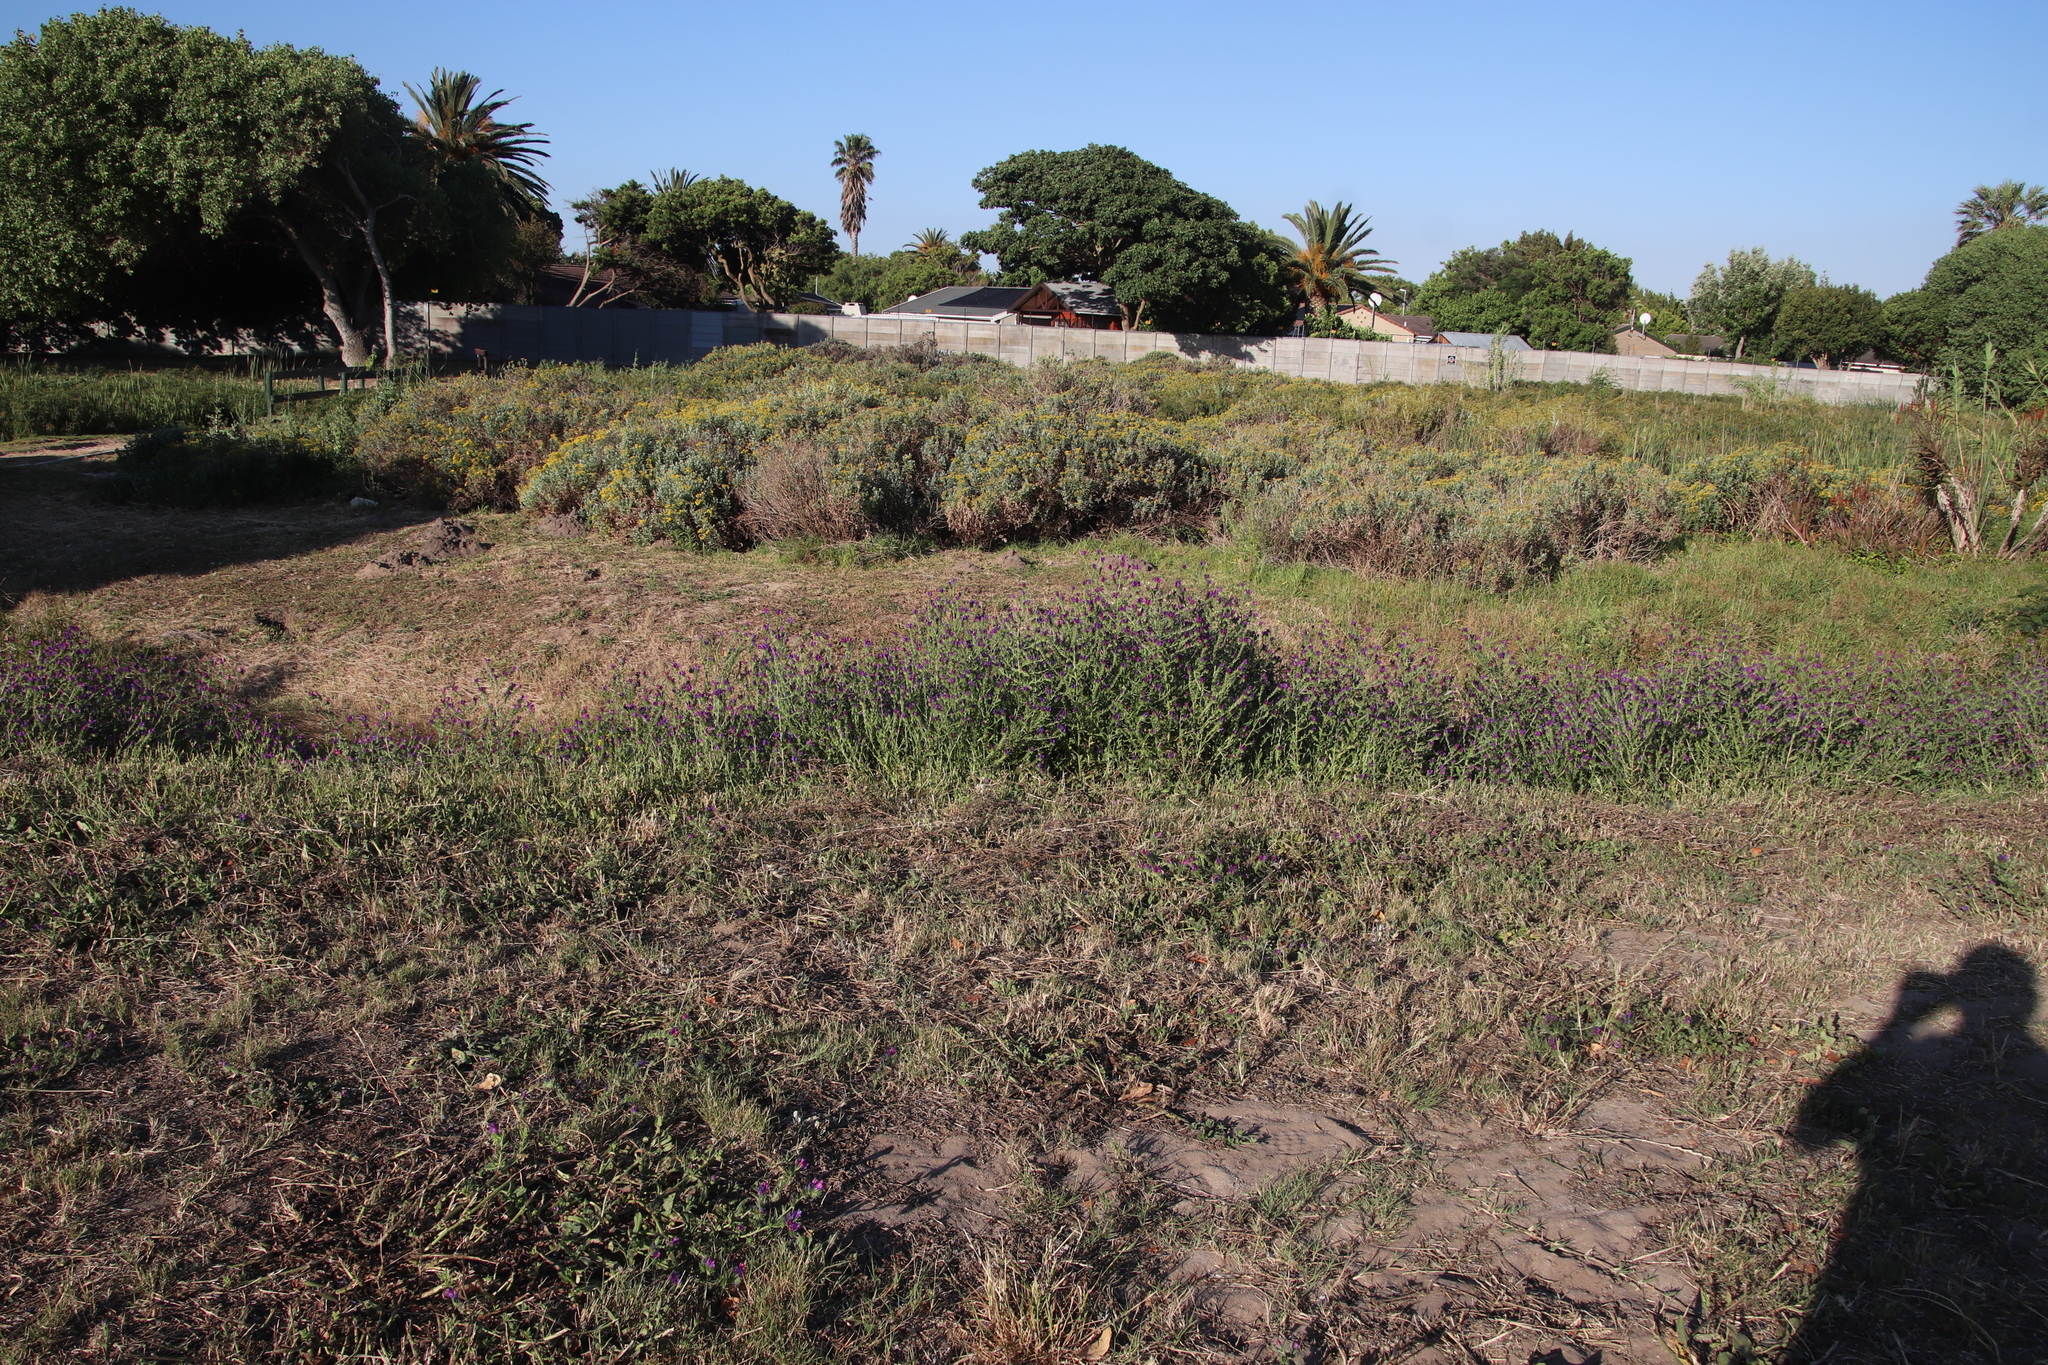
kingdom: Plantae
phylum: Tracheophyta
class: Magnoliopsida
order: Boraginales
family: Boraginaceae
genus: Echium
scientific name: Echium plantagineum
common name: Purple viper's-bugloss
